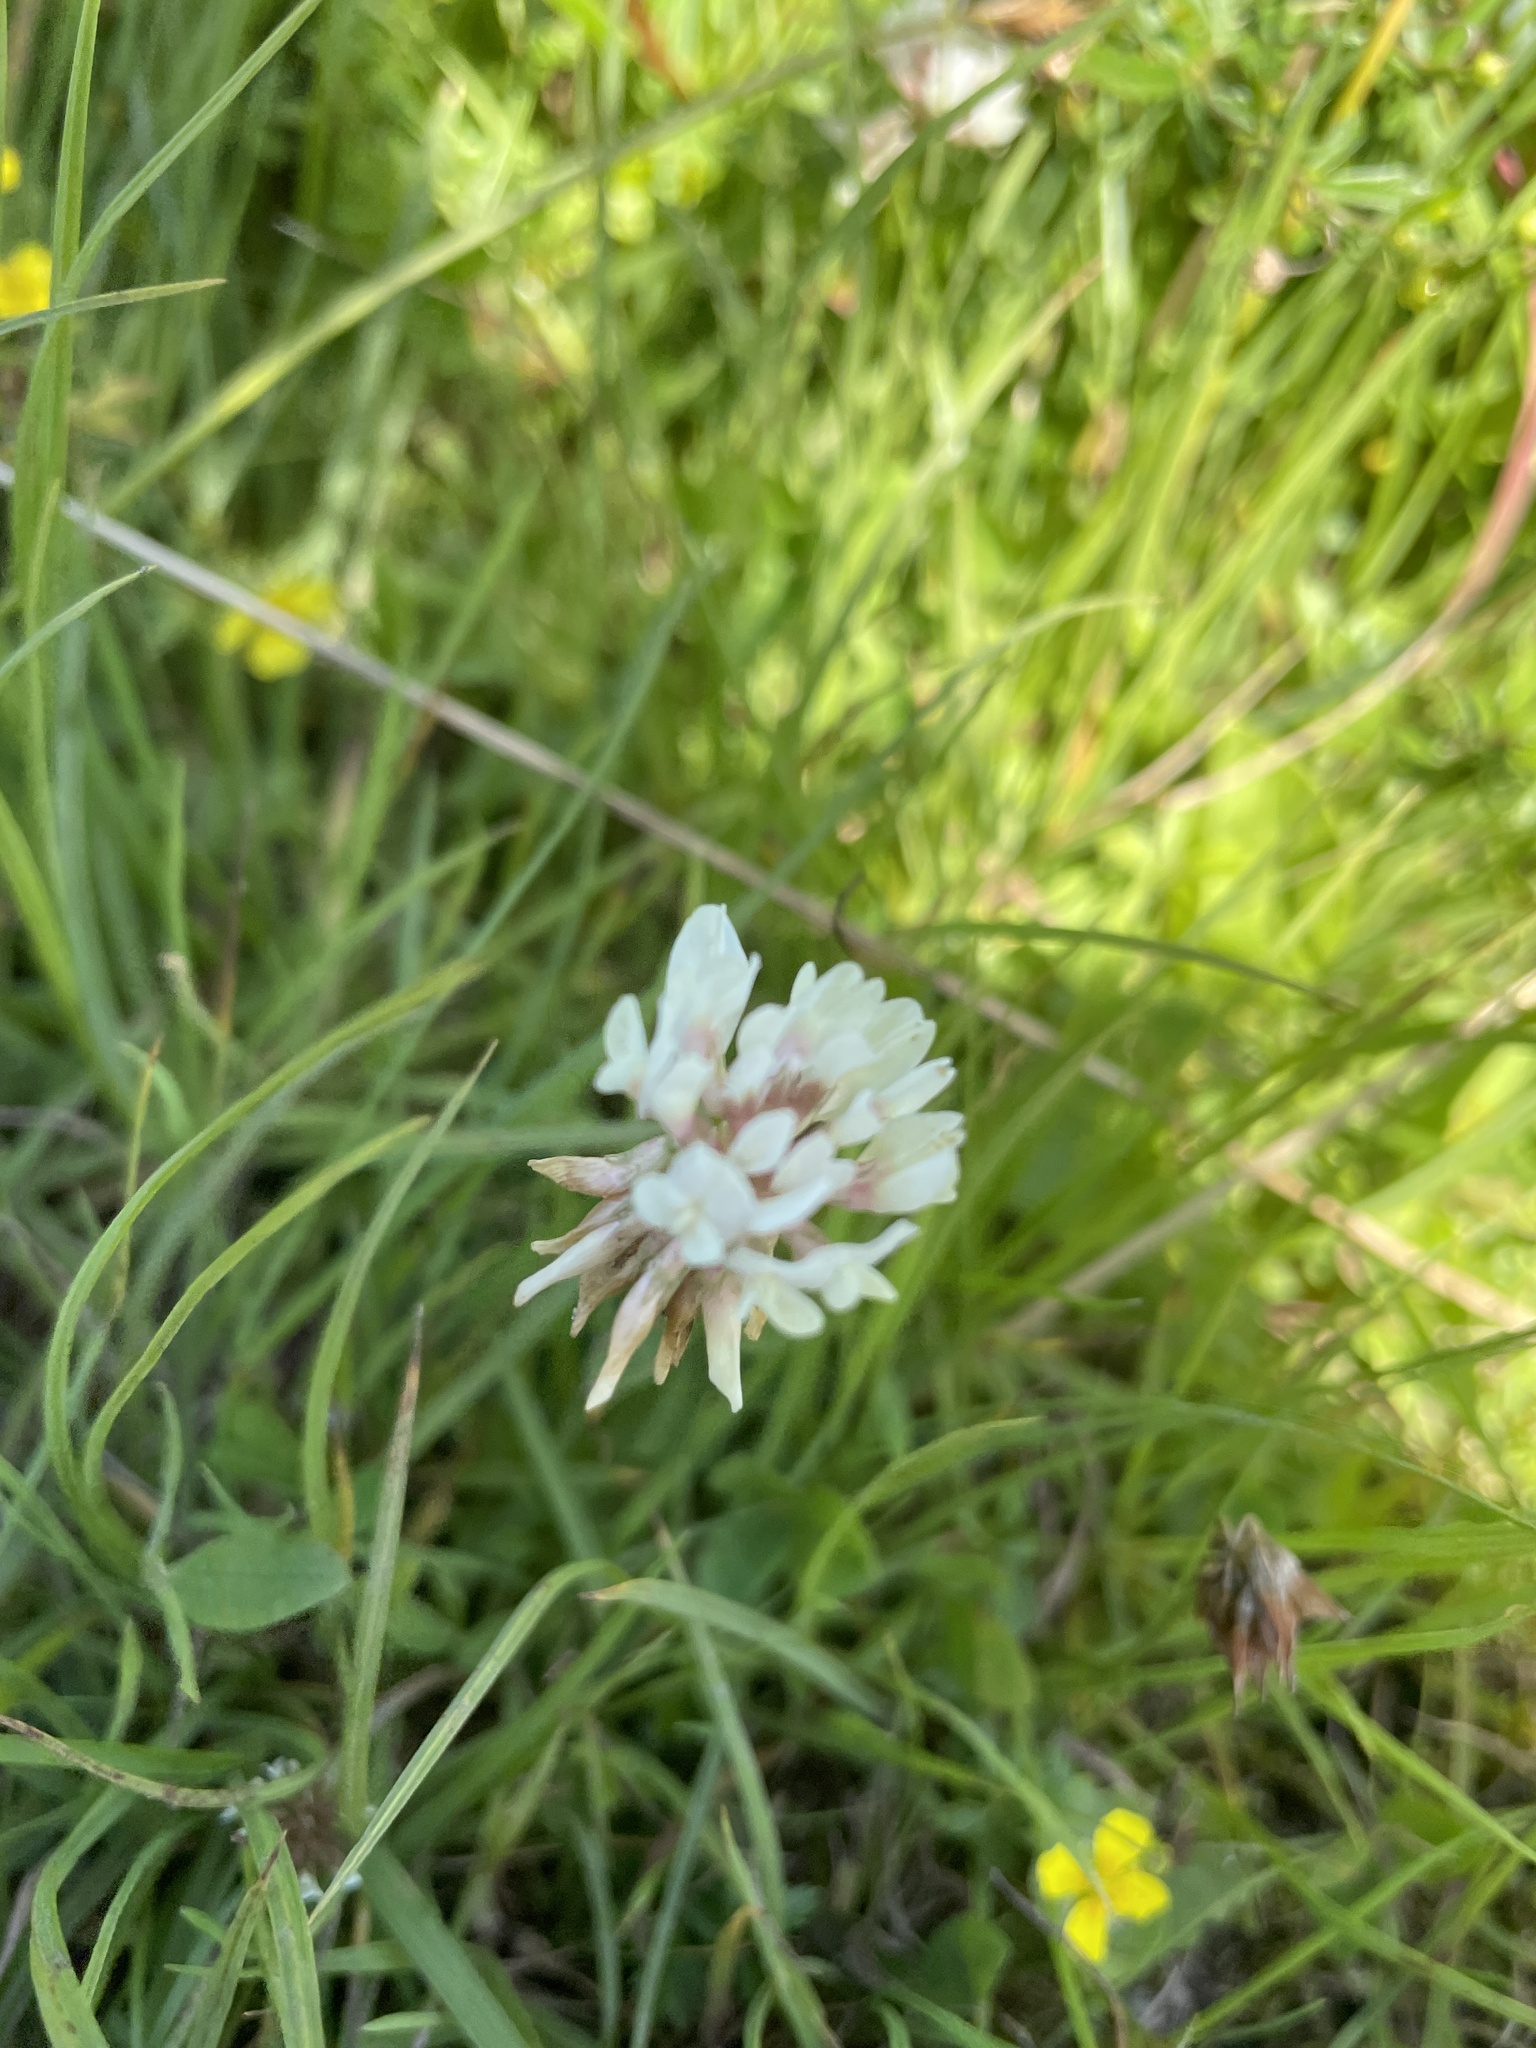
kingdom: Plantae
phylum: Tracheophyta
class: Magnoliopsida
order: Fabales
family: Fabaceae
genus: Trifolium
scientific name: Trifolium repens
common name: White clover
